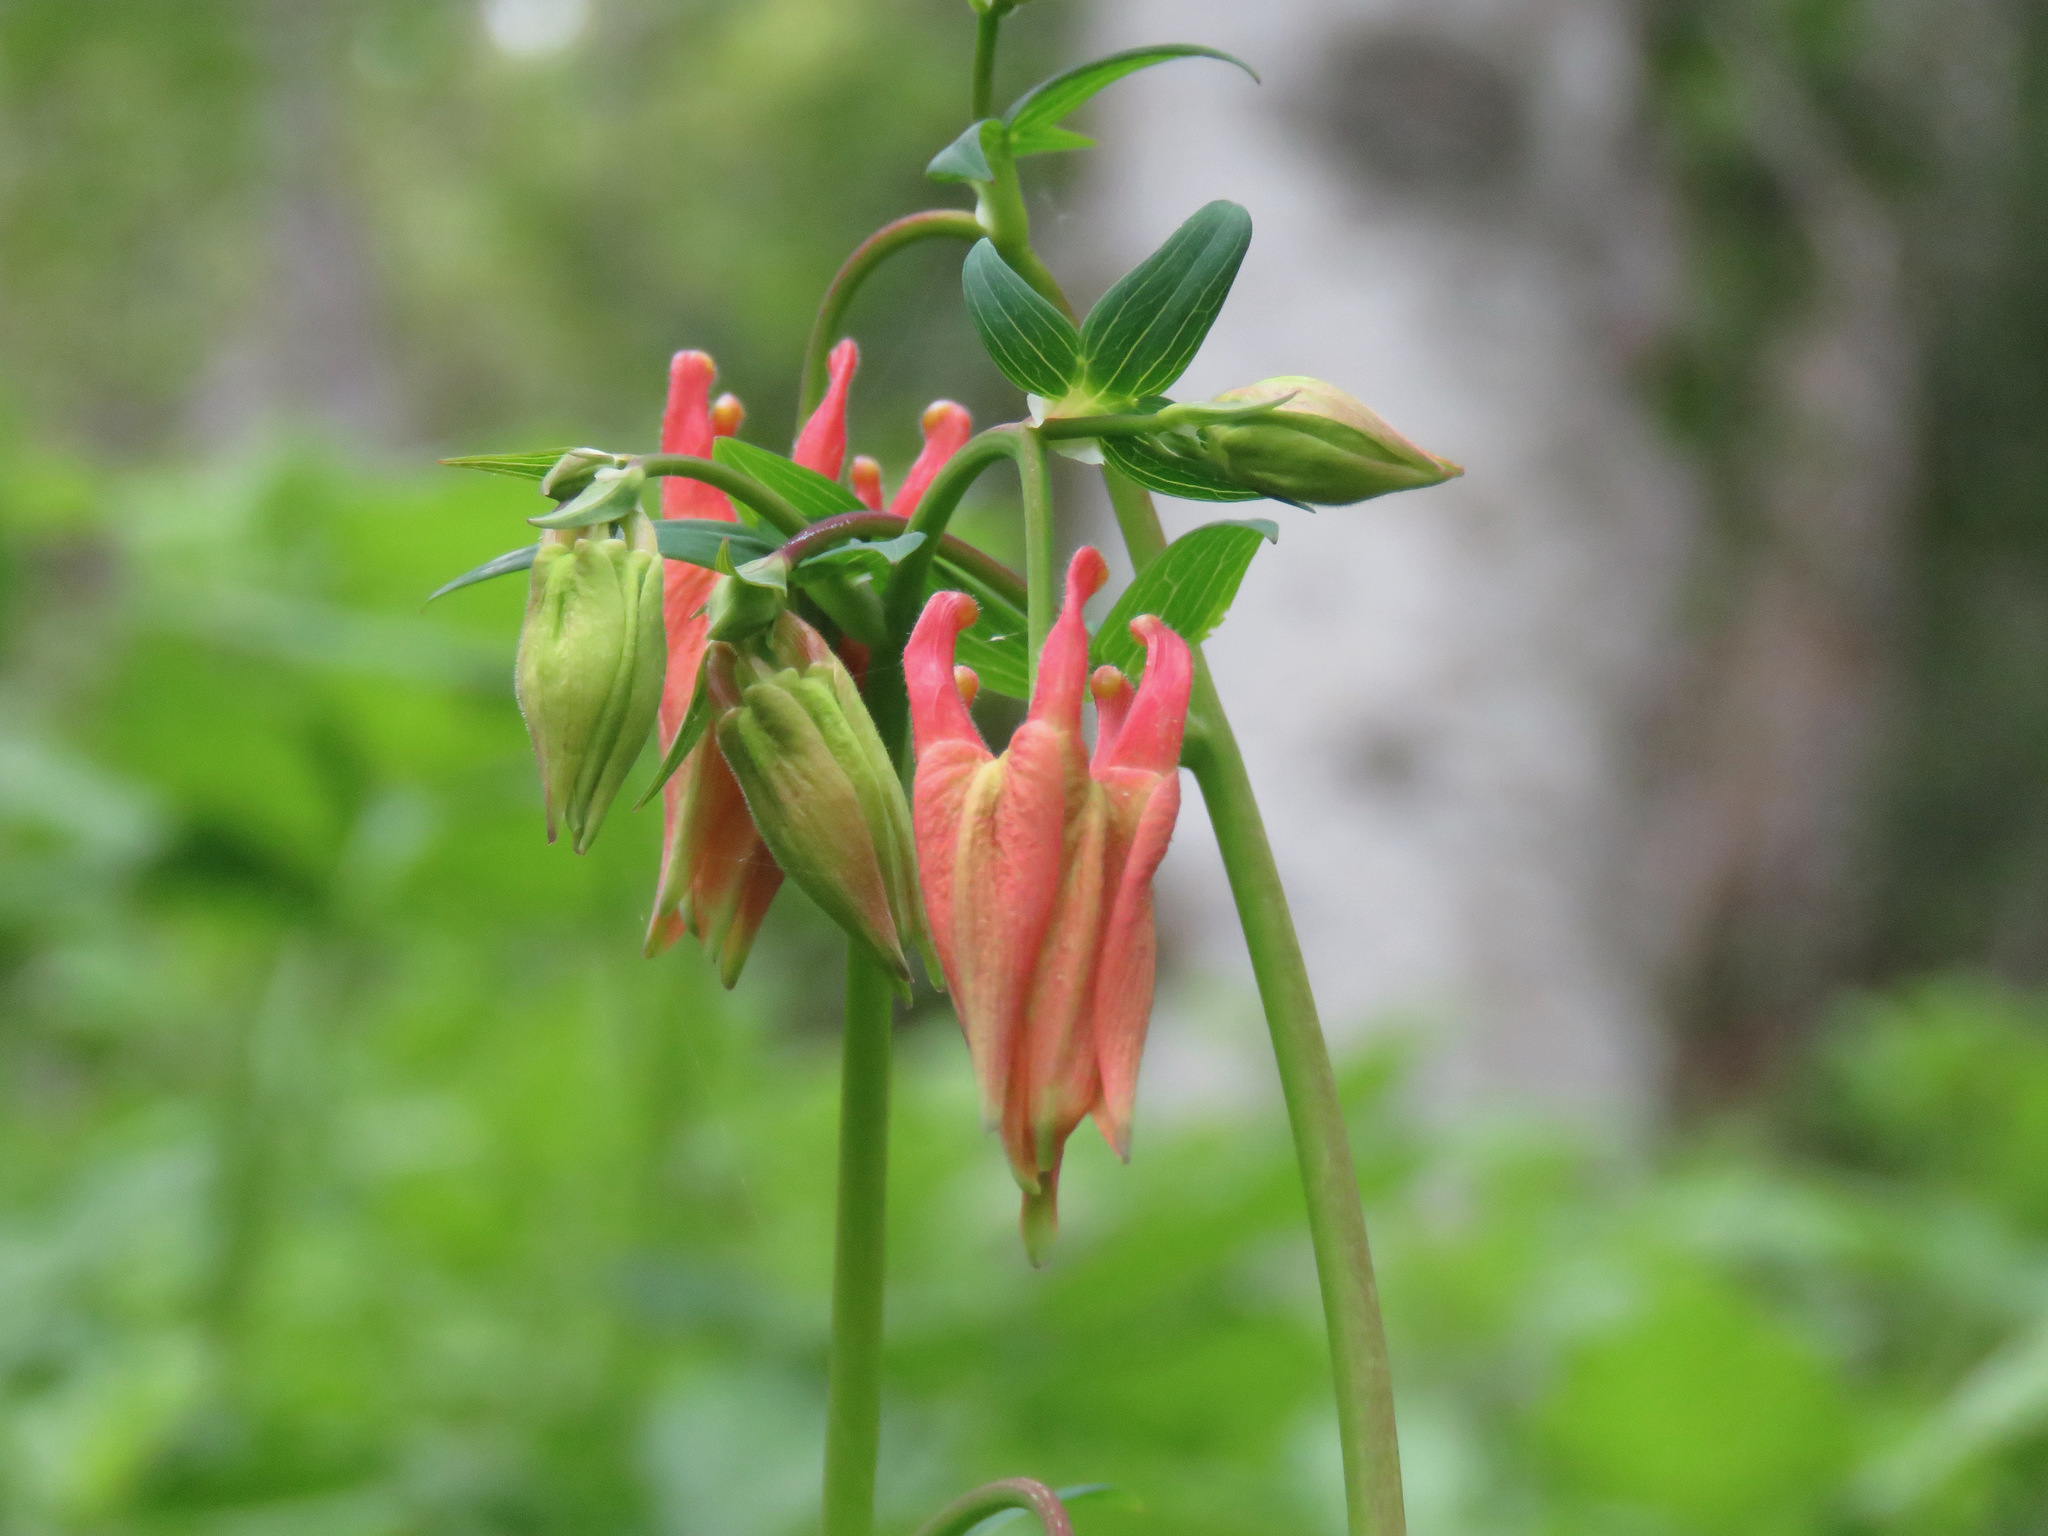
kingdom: Plantae
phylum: Tracheophyta
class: Magnoliopsida
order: Ranunculales
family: Ranunculaceae
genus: Aquilegia
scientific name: Aquilegia formosa
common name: Sitka columbine
